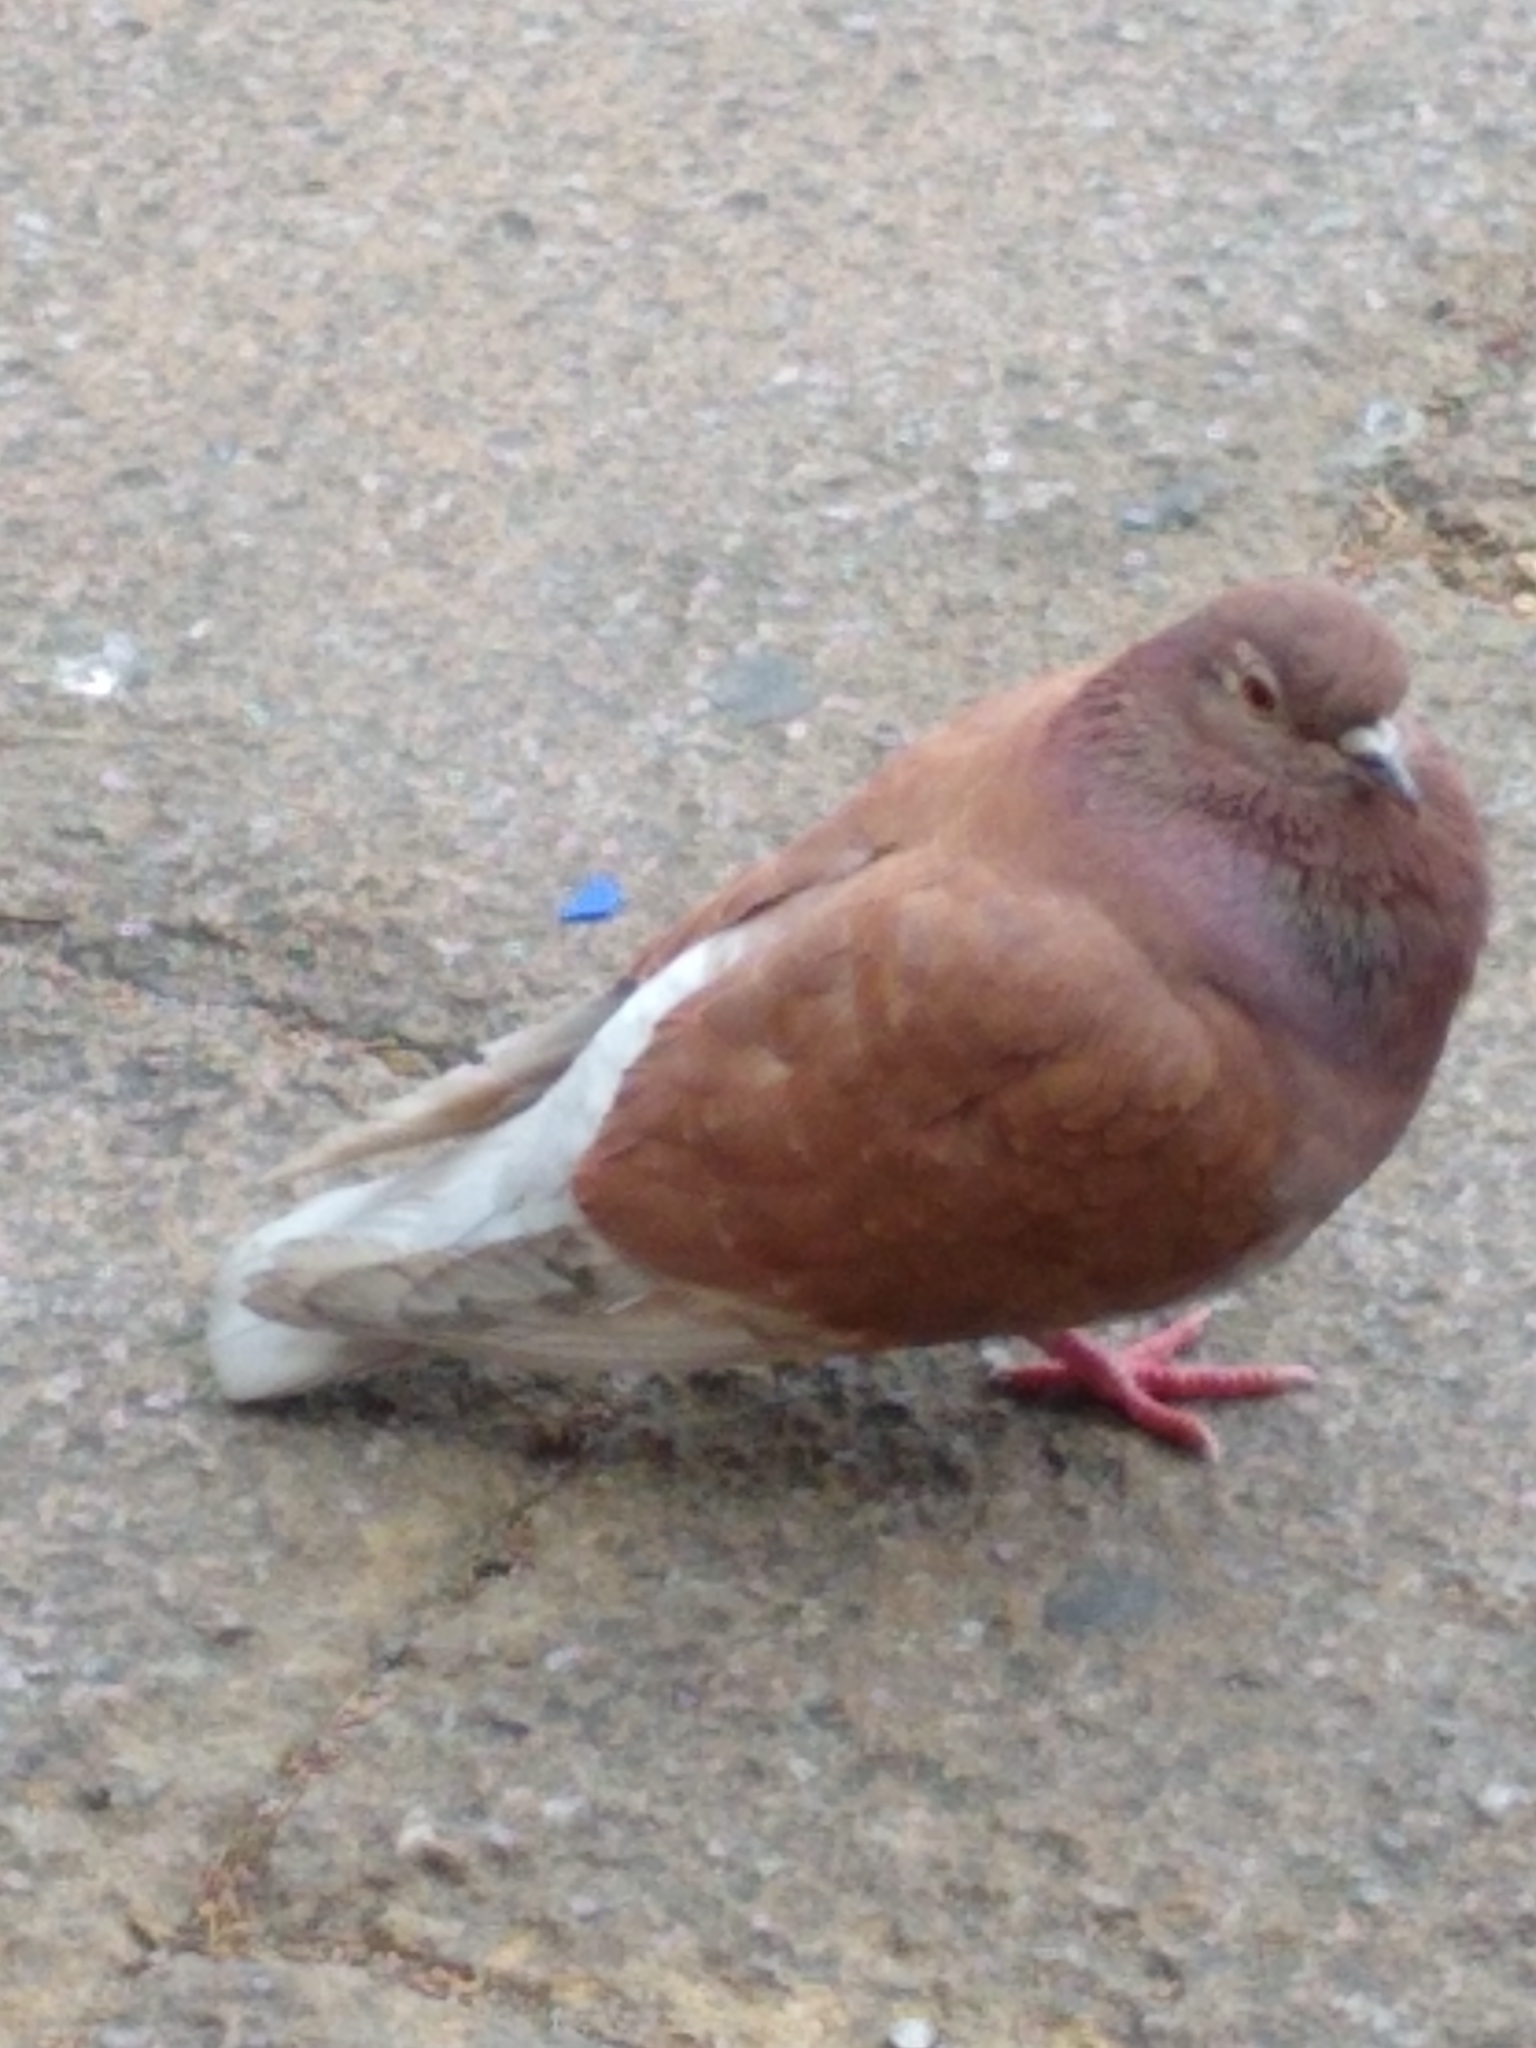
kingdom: Animalia
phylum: Chordata
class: Aves
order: Columbiformes
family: Columbidae
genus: Columba
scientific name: Columba livia
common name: Rock pigeon
